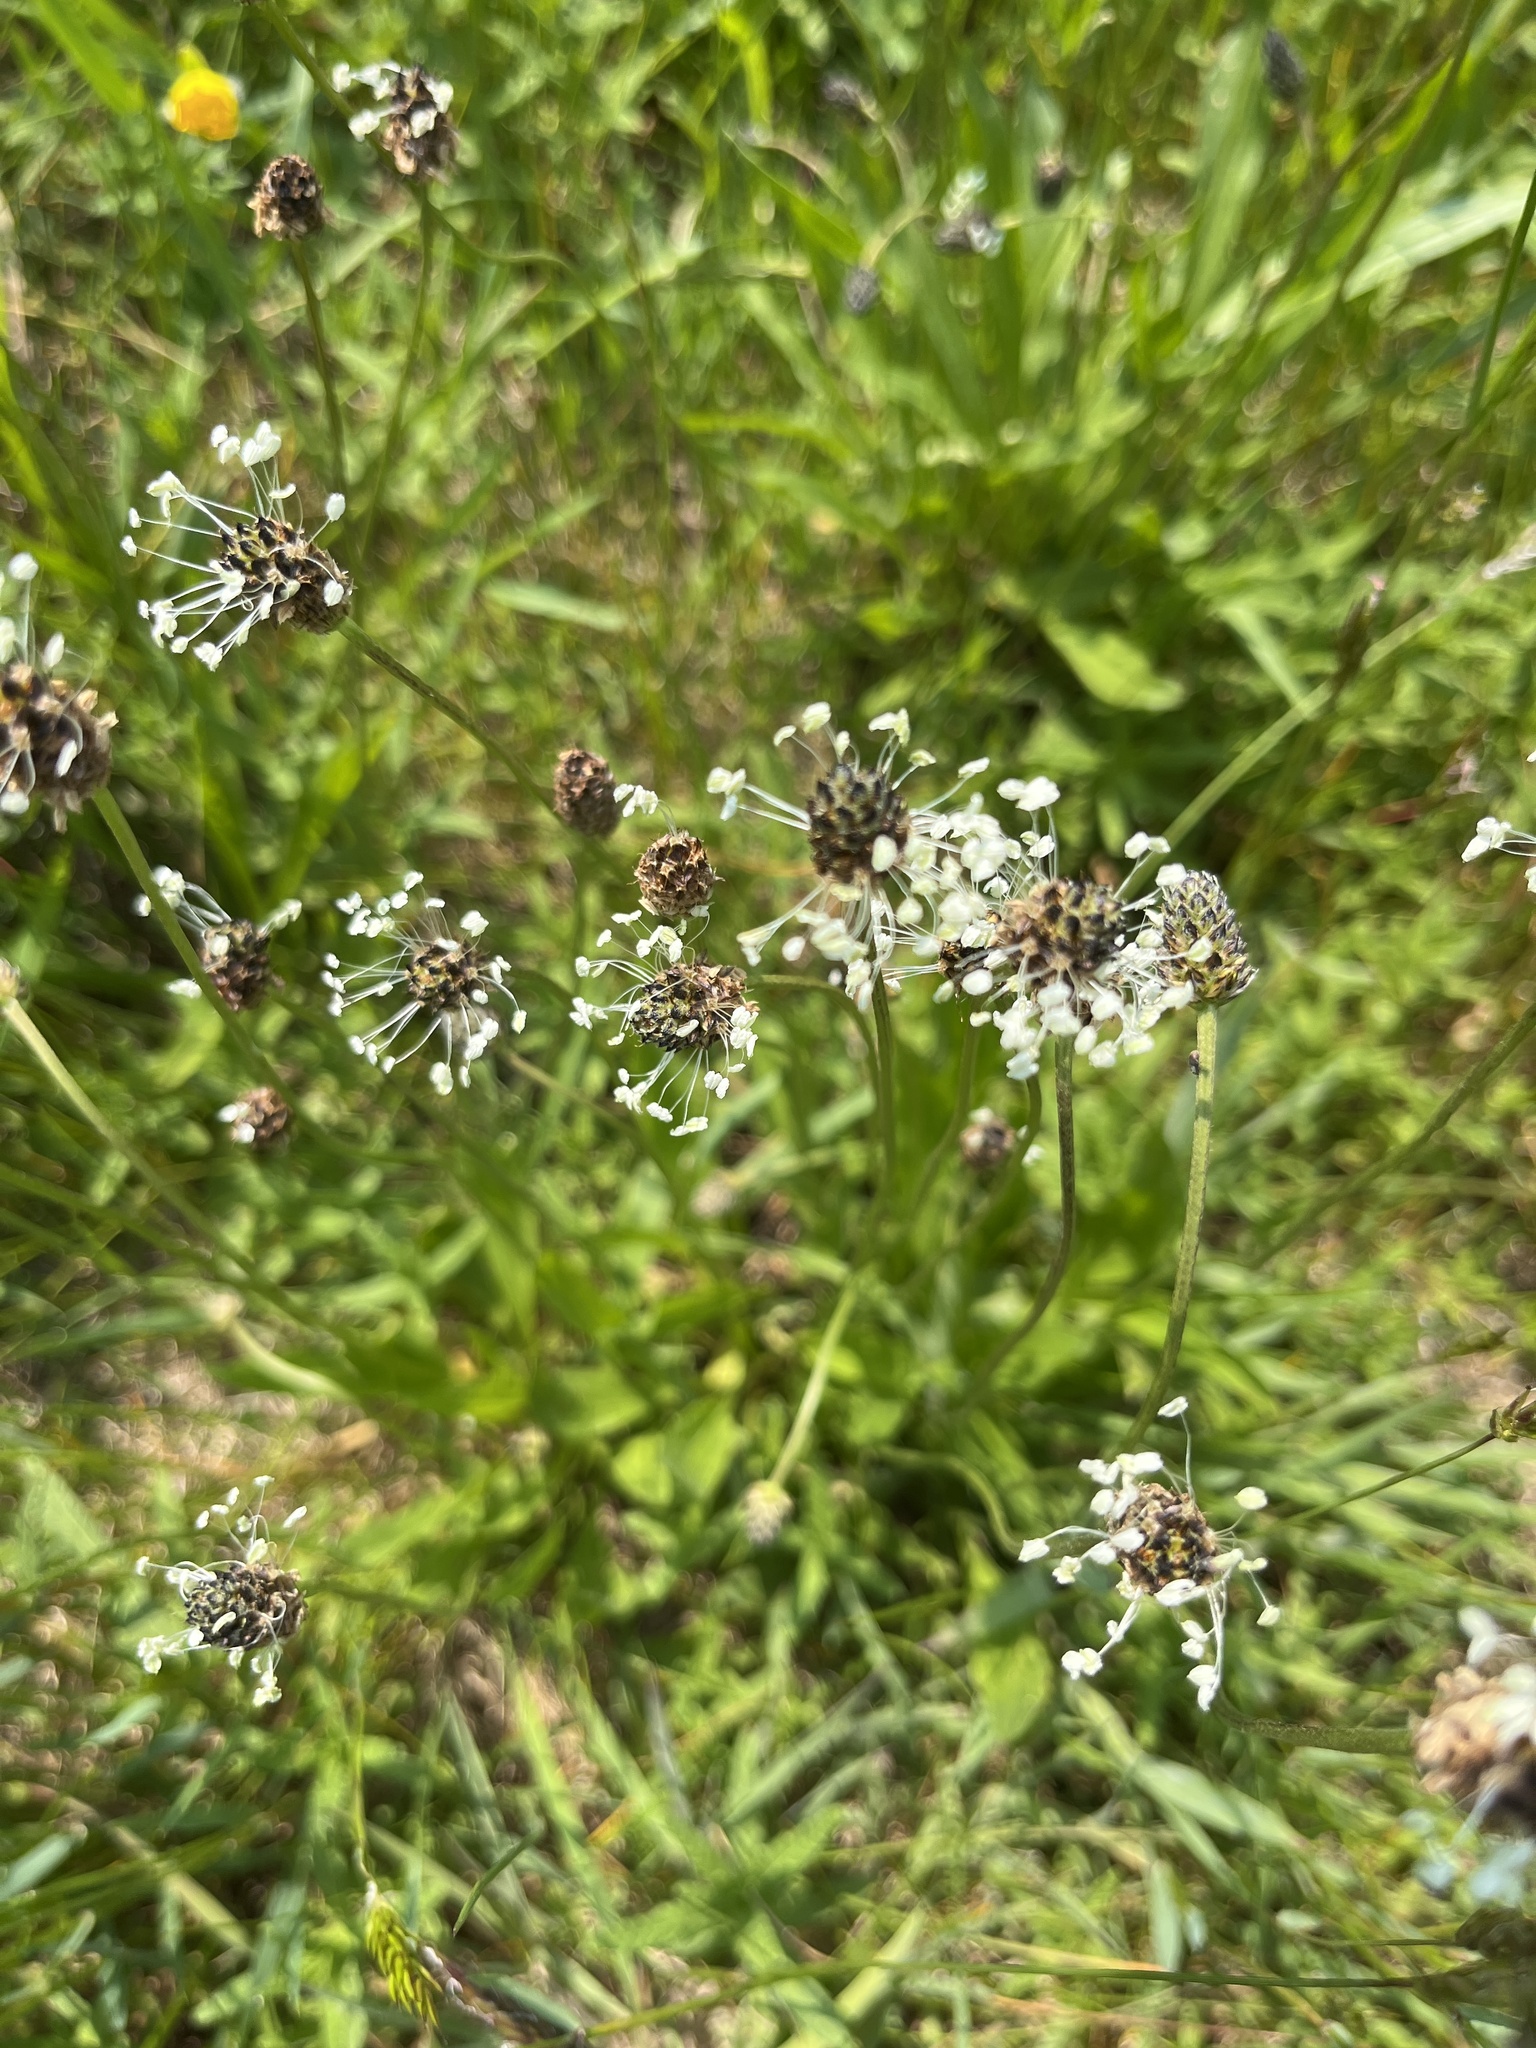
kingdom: Plantae
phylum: Tracheophyta
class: Magnoliopsida
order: Lamiales
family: Plantaginaceae
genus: Plantago
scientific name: Plantago lanceolata
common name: Ribwort plantain
